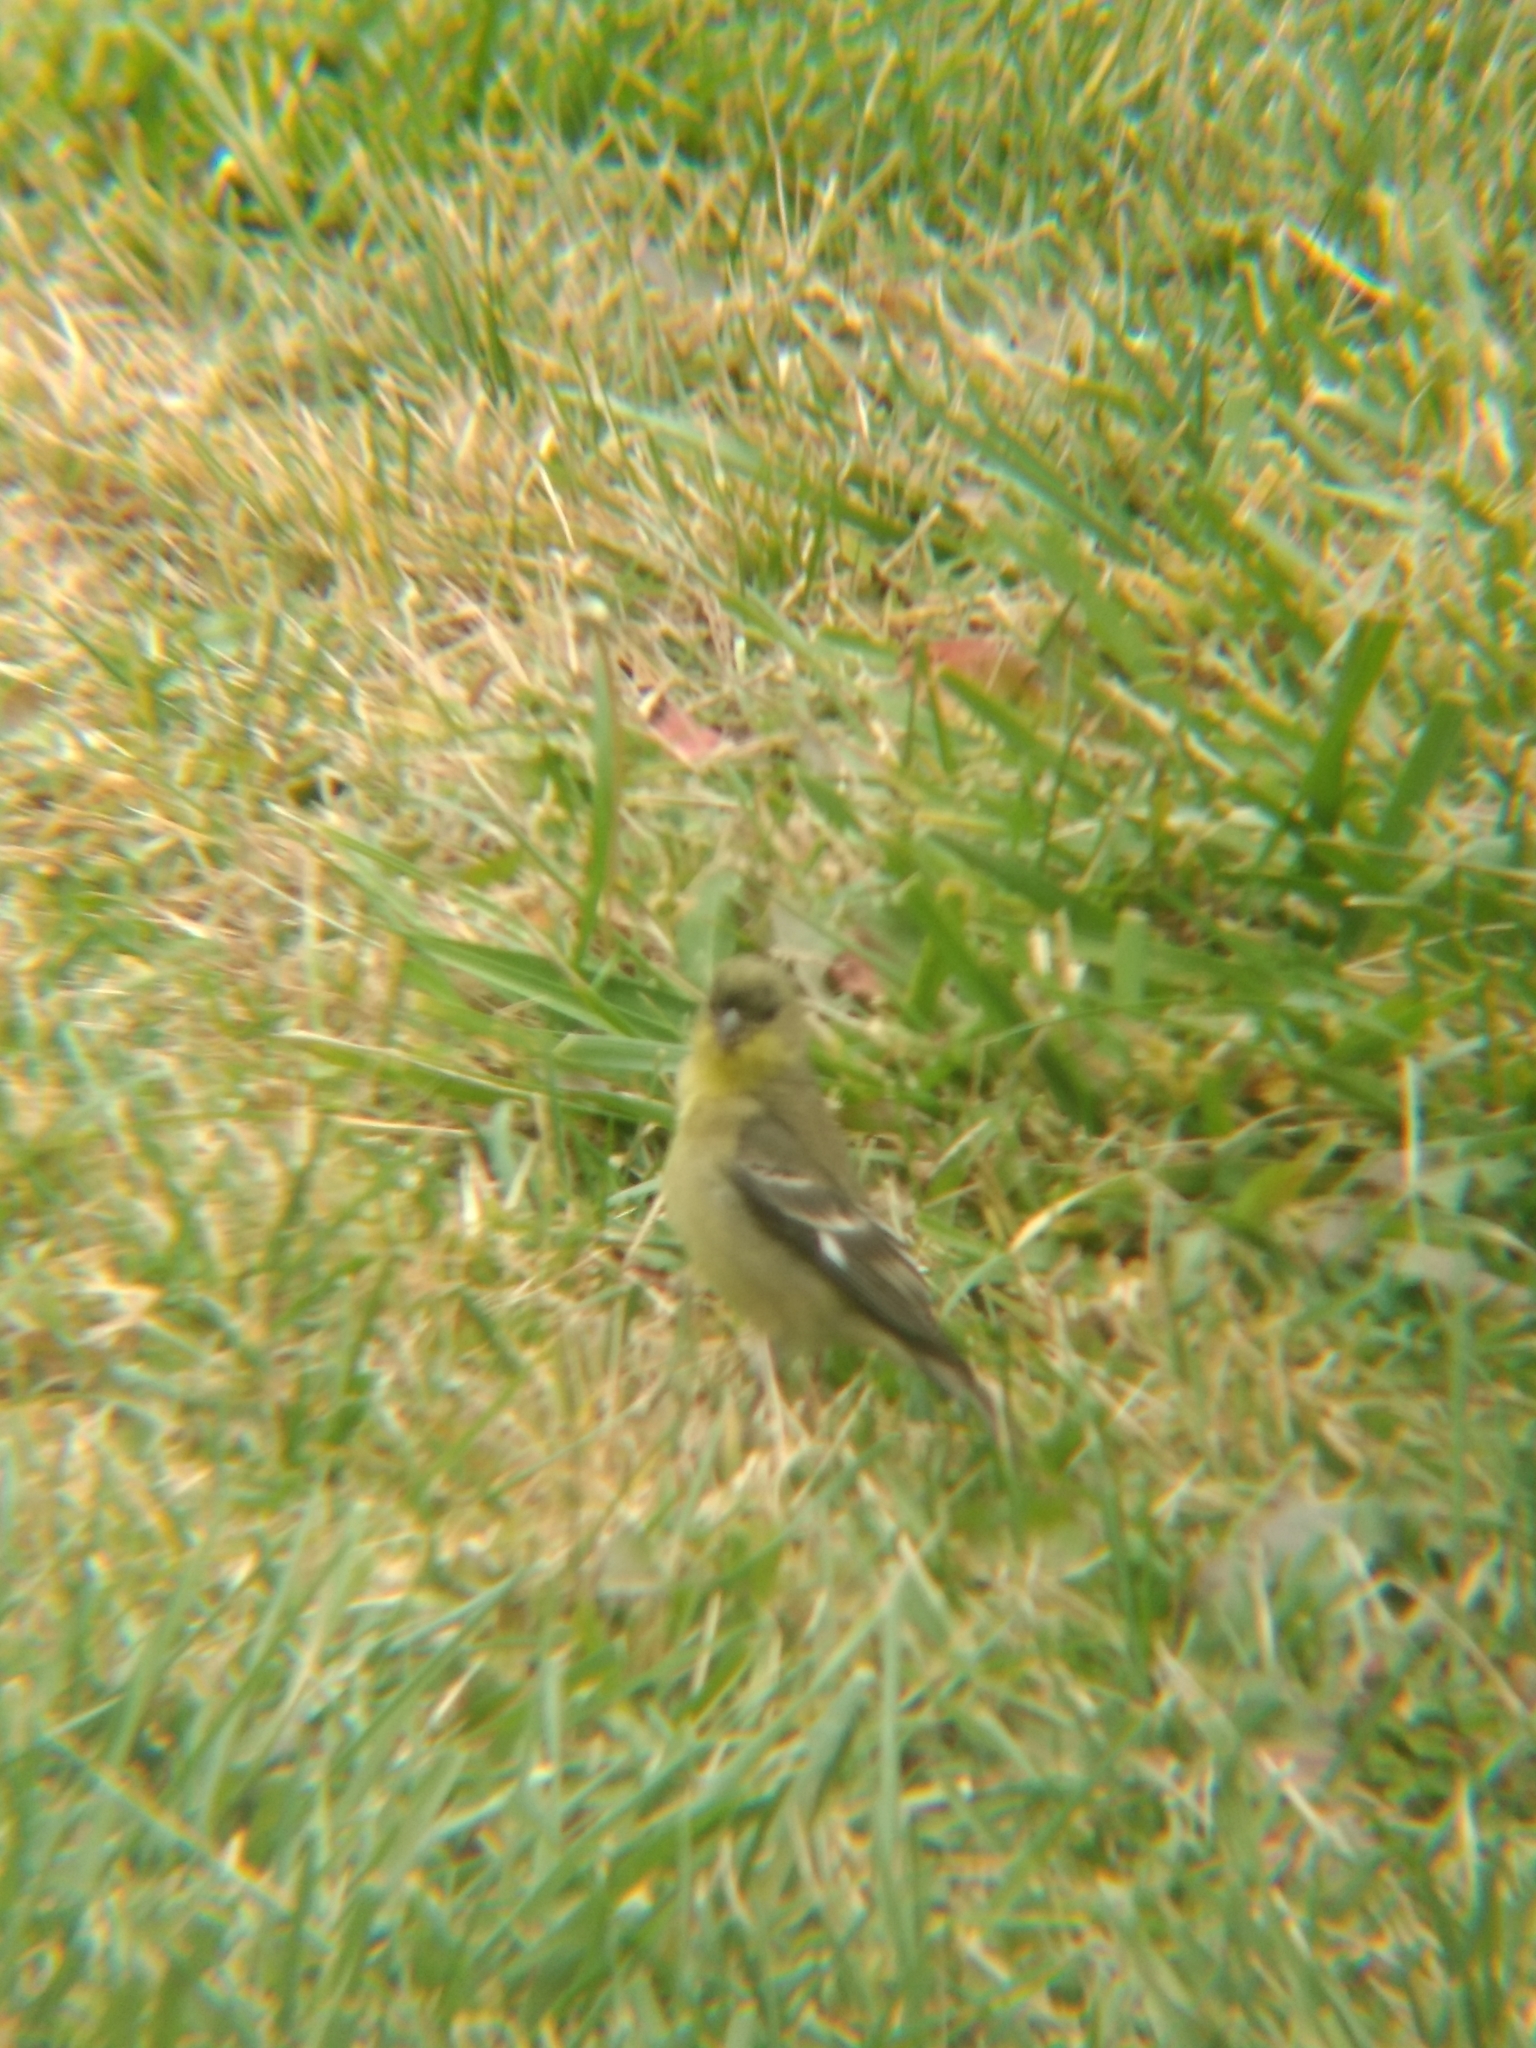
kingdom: Animalia
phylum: Chordata
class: Aves
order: Passeriformes
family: Fringillidae
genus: Spinus
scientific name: Spinus psaltria
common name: Lesser goldfinch
